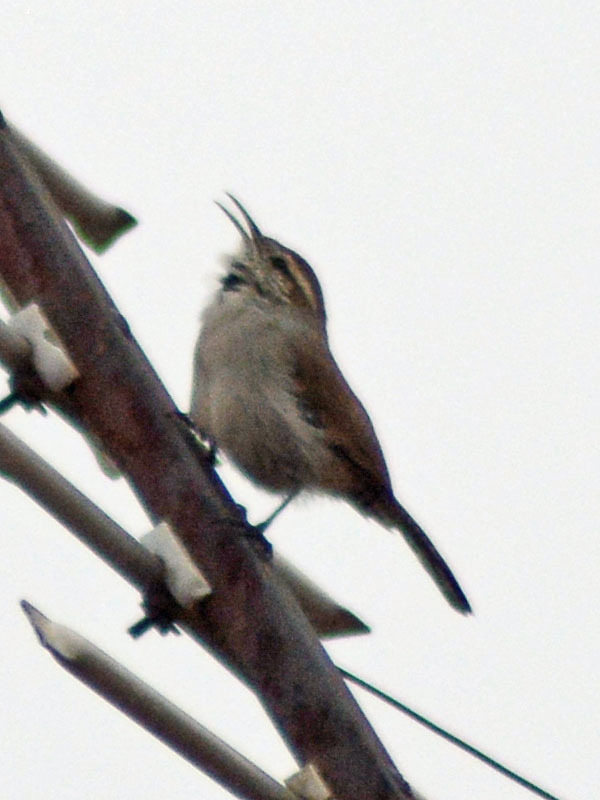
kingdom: Animalia
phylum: Chordata
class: Aves
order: Passeriformes
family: Troglodytidae
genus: Thryomanes
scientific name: Thryomanes bewickii
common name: Bewick's wren
